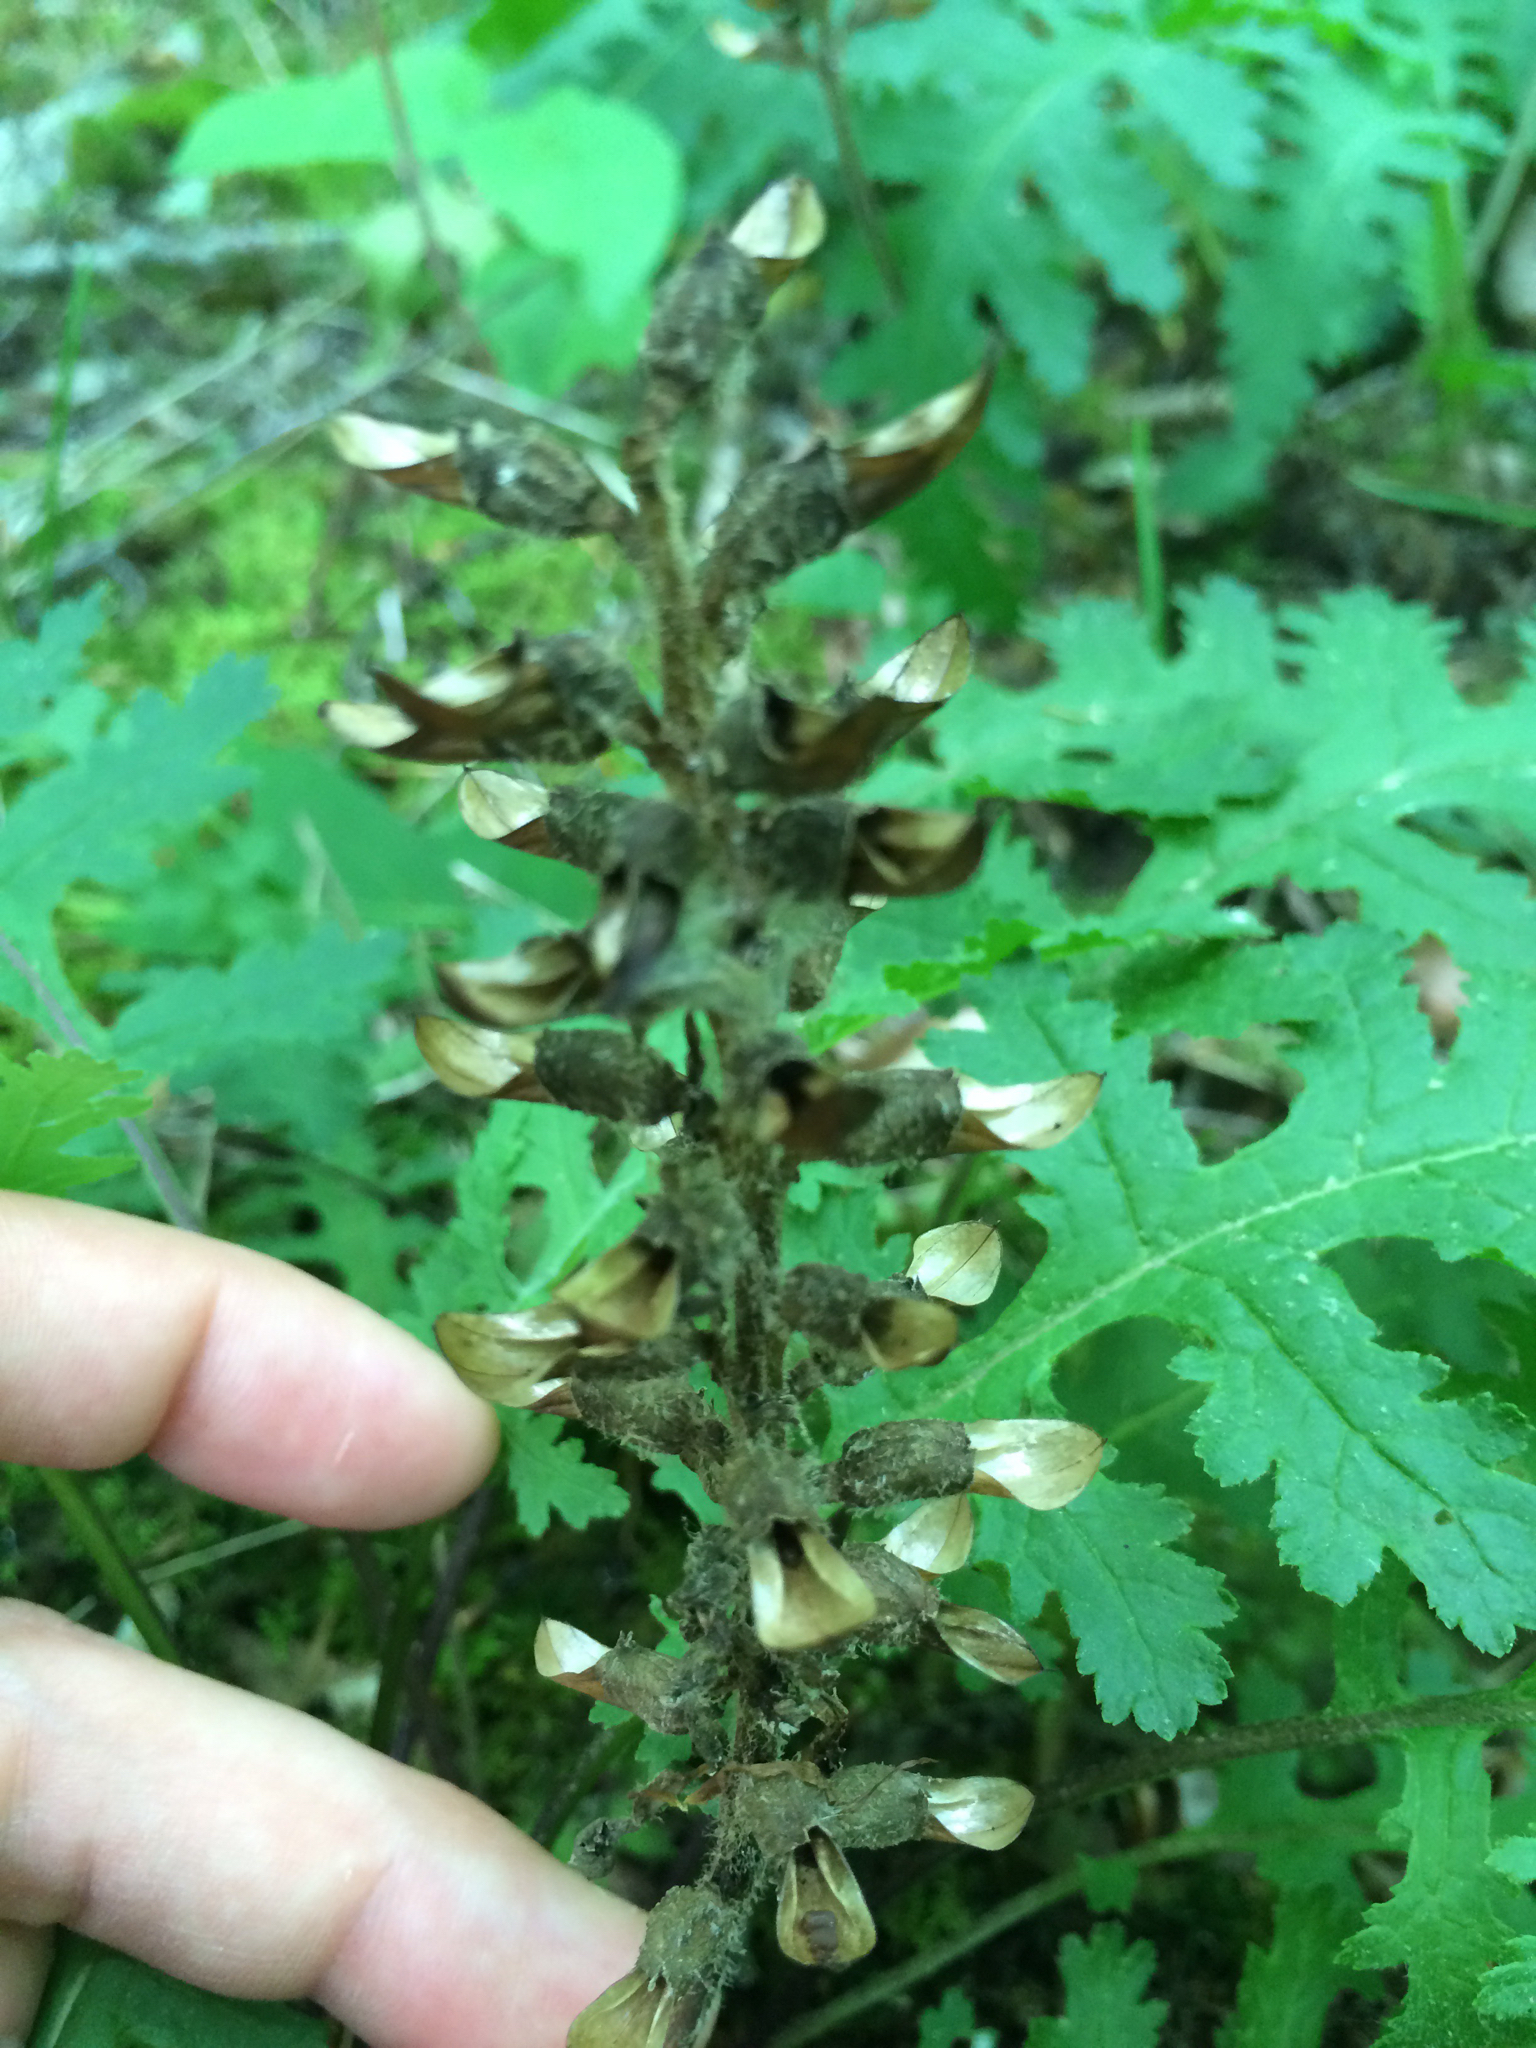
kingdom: Plantae
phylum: Tracheophyta
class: Magnoliopsida
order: Lamiales
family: Orobanchaceae
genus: Pedicularis
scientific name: Pedicularis canadensis
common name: Early lousewort
